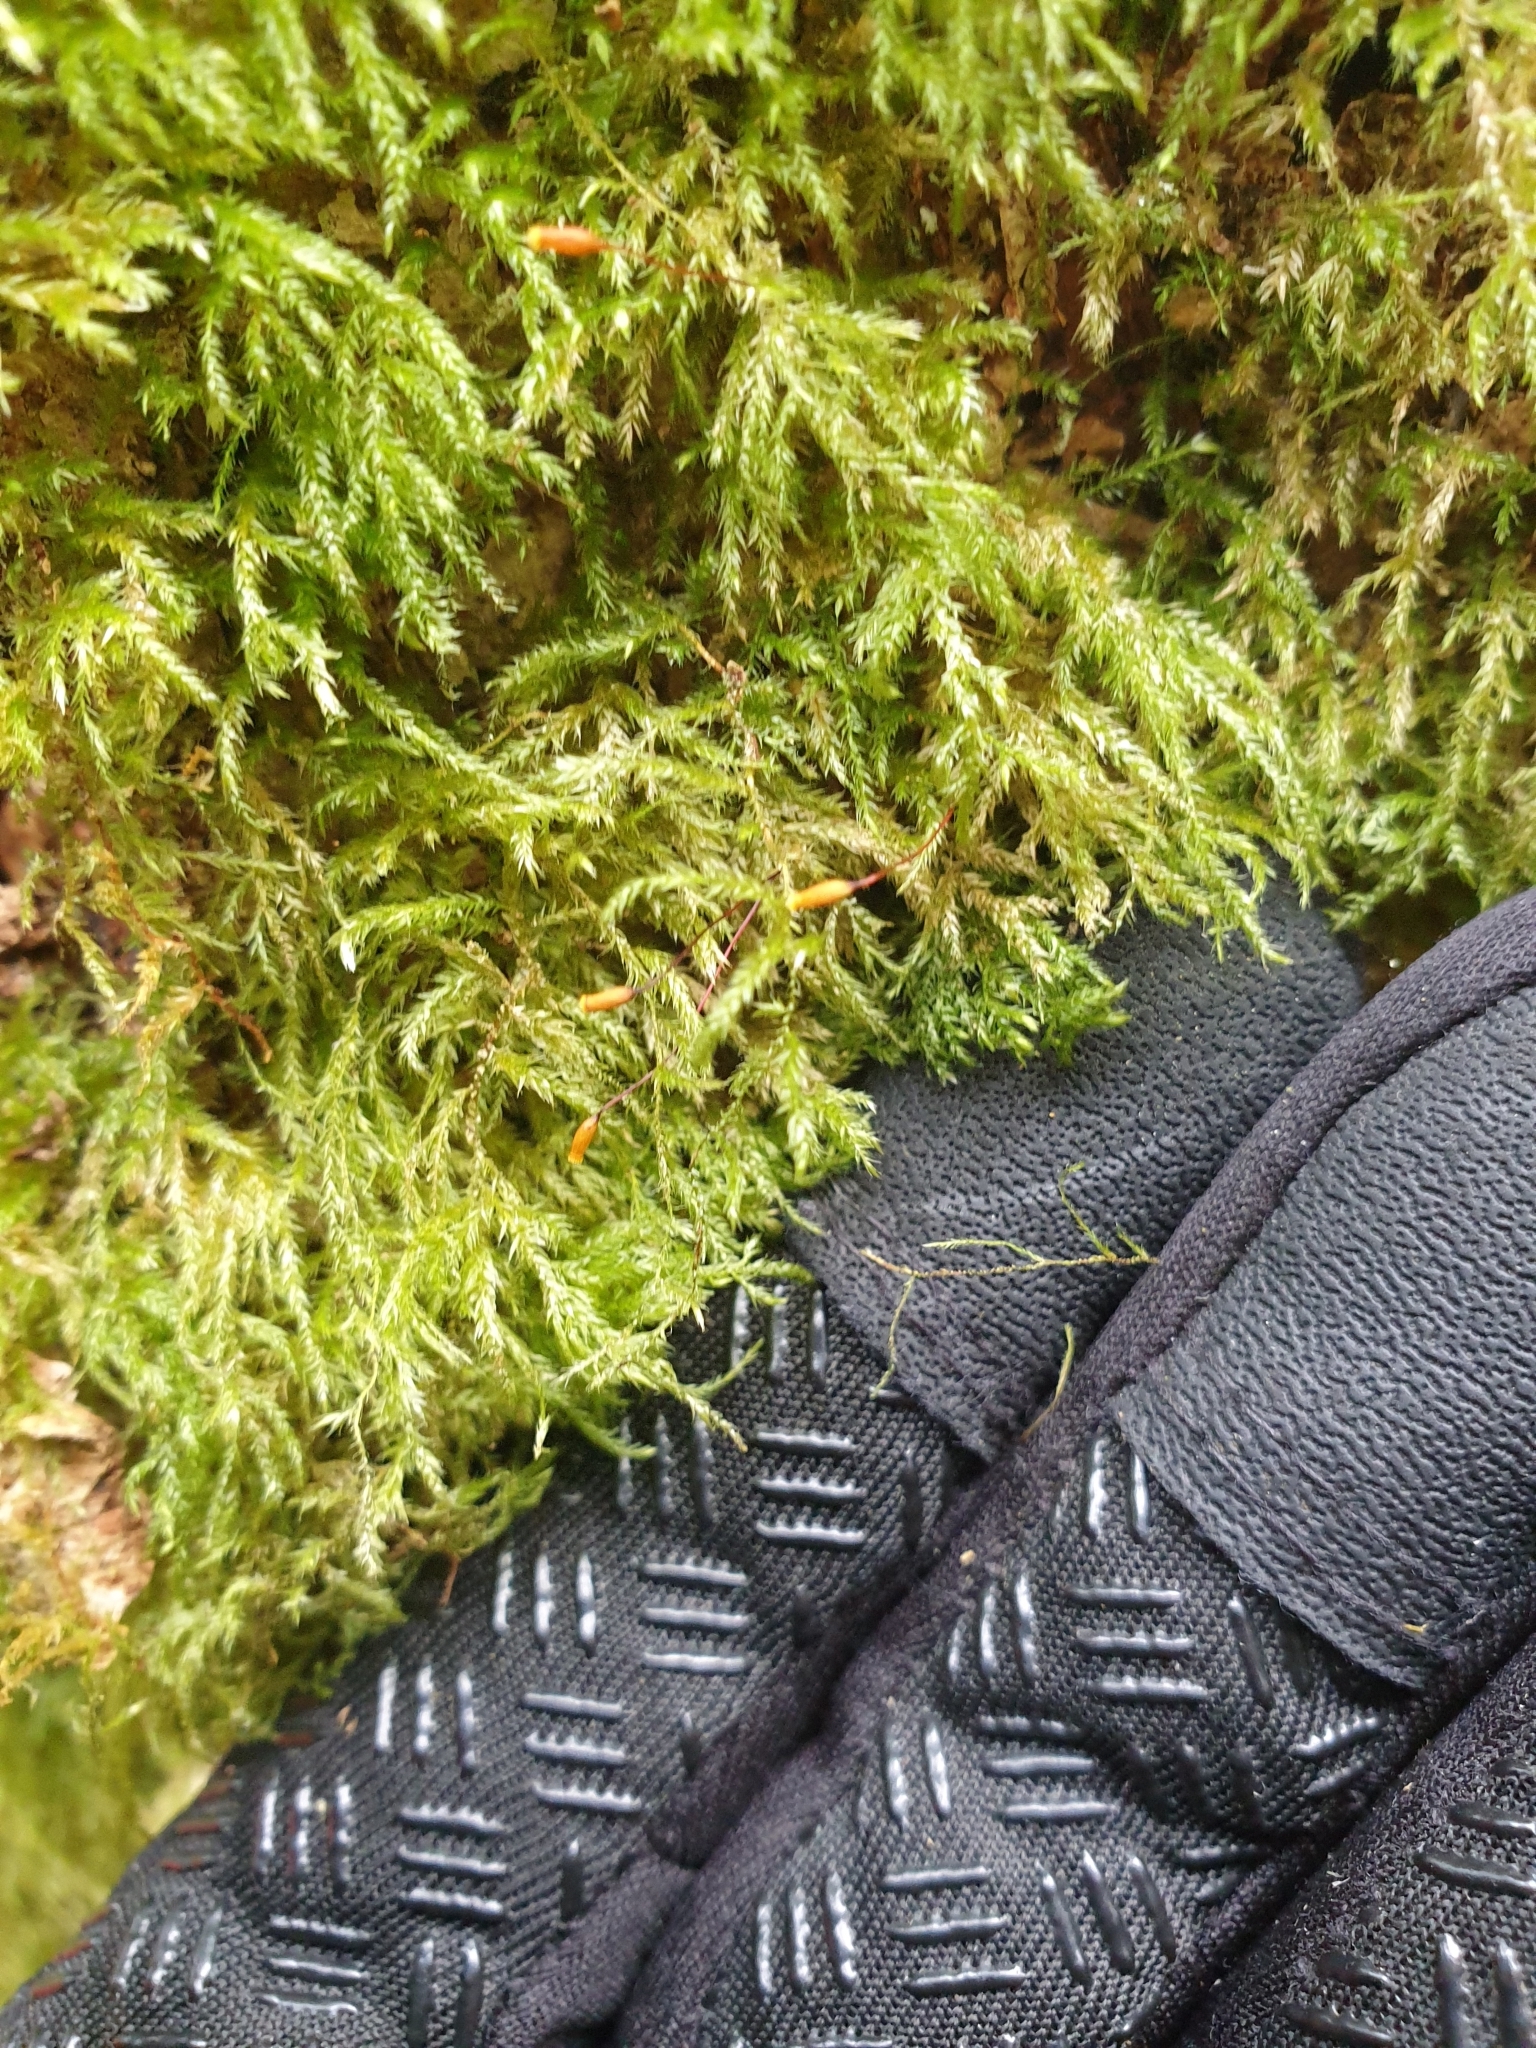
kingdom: Plantae
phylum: Bryophyta
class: Bryopsida
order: Hypnales
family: Lembophyllaceae
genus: Pseudisothecium
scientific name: Pseudisothecium myosuroides
